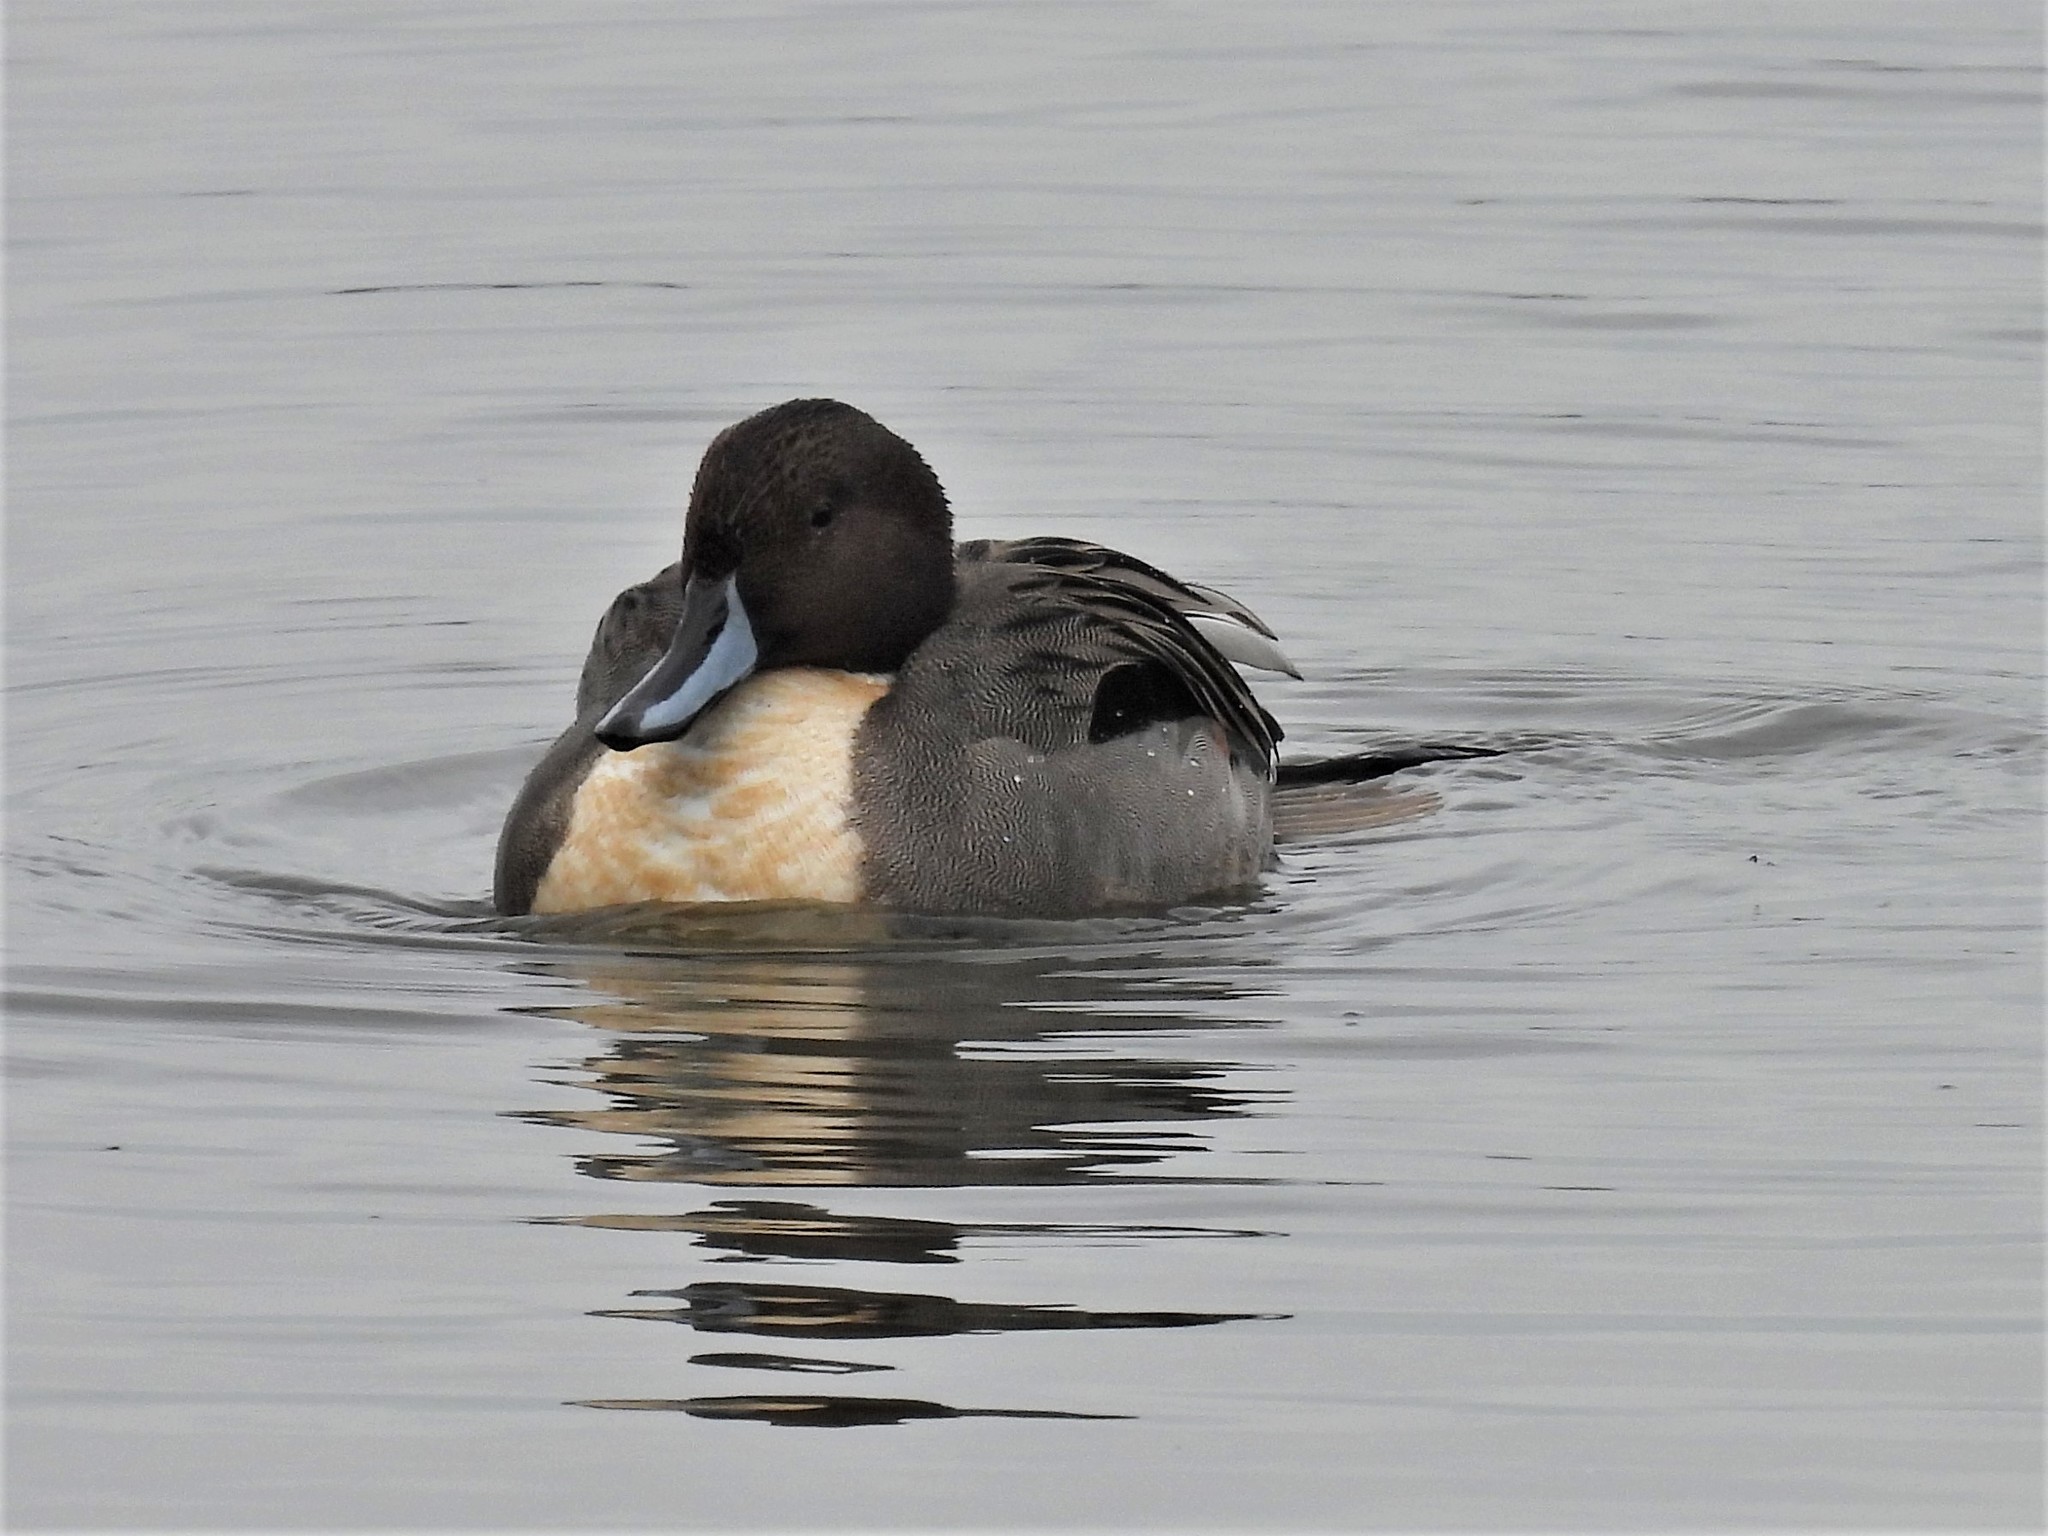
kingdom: Animalia
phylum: Chordata
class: Aves
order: Anseriformes
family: Anatidae
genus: Anas
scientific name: Anas acuta
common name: Northern pintail
